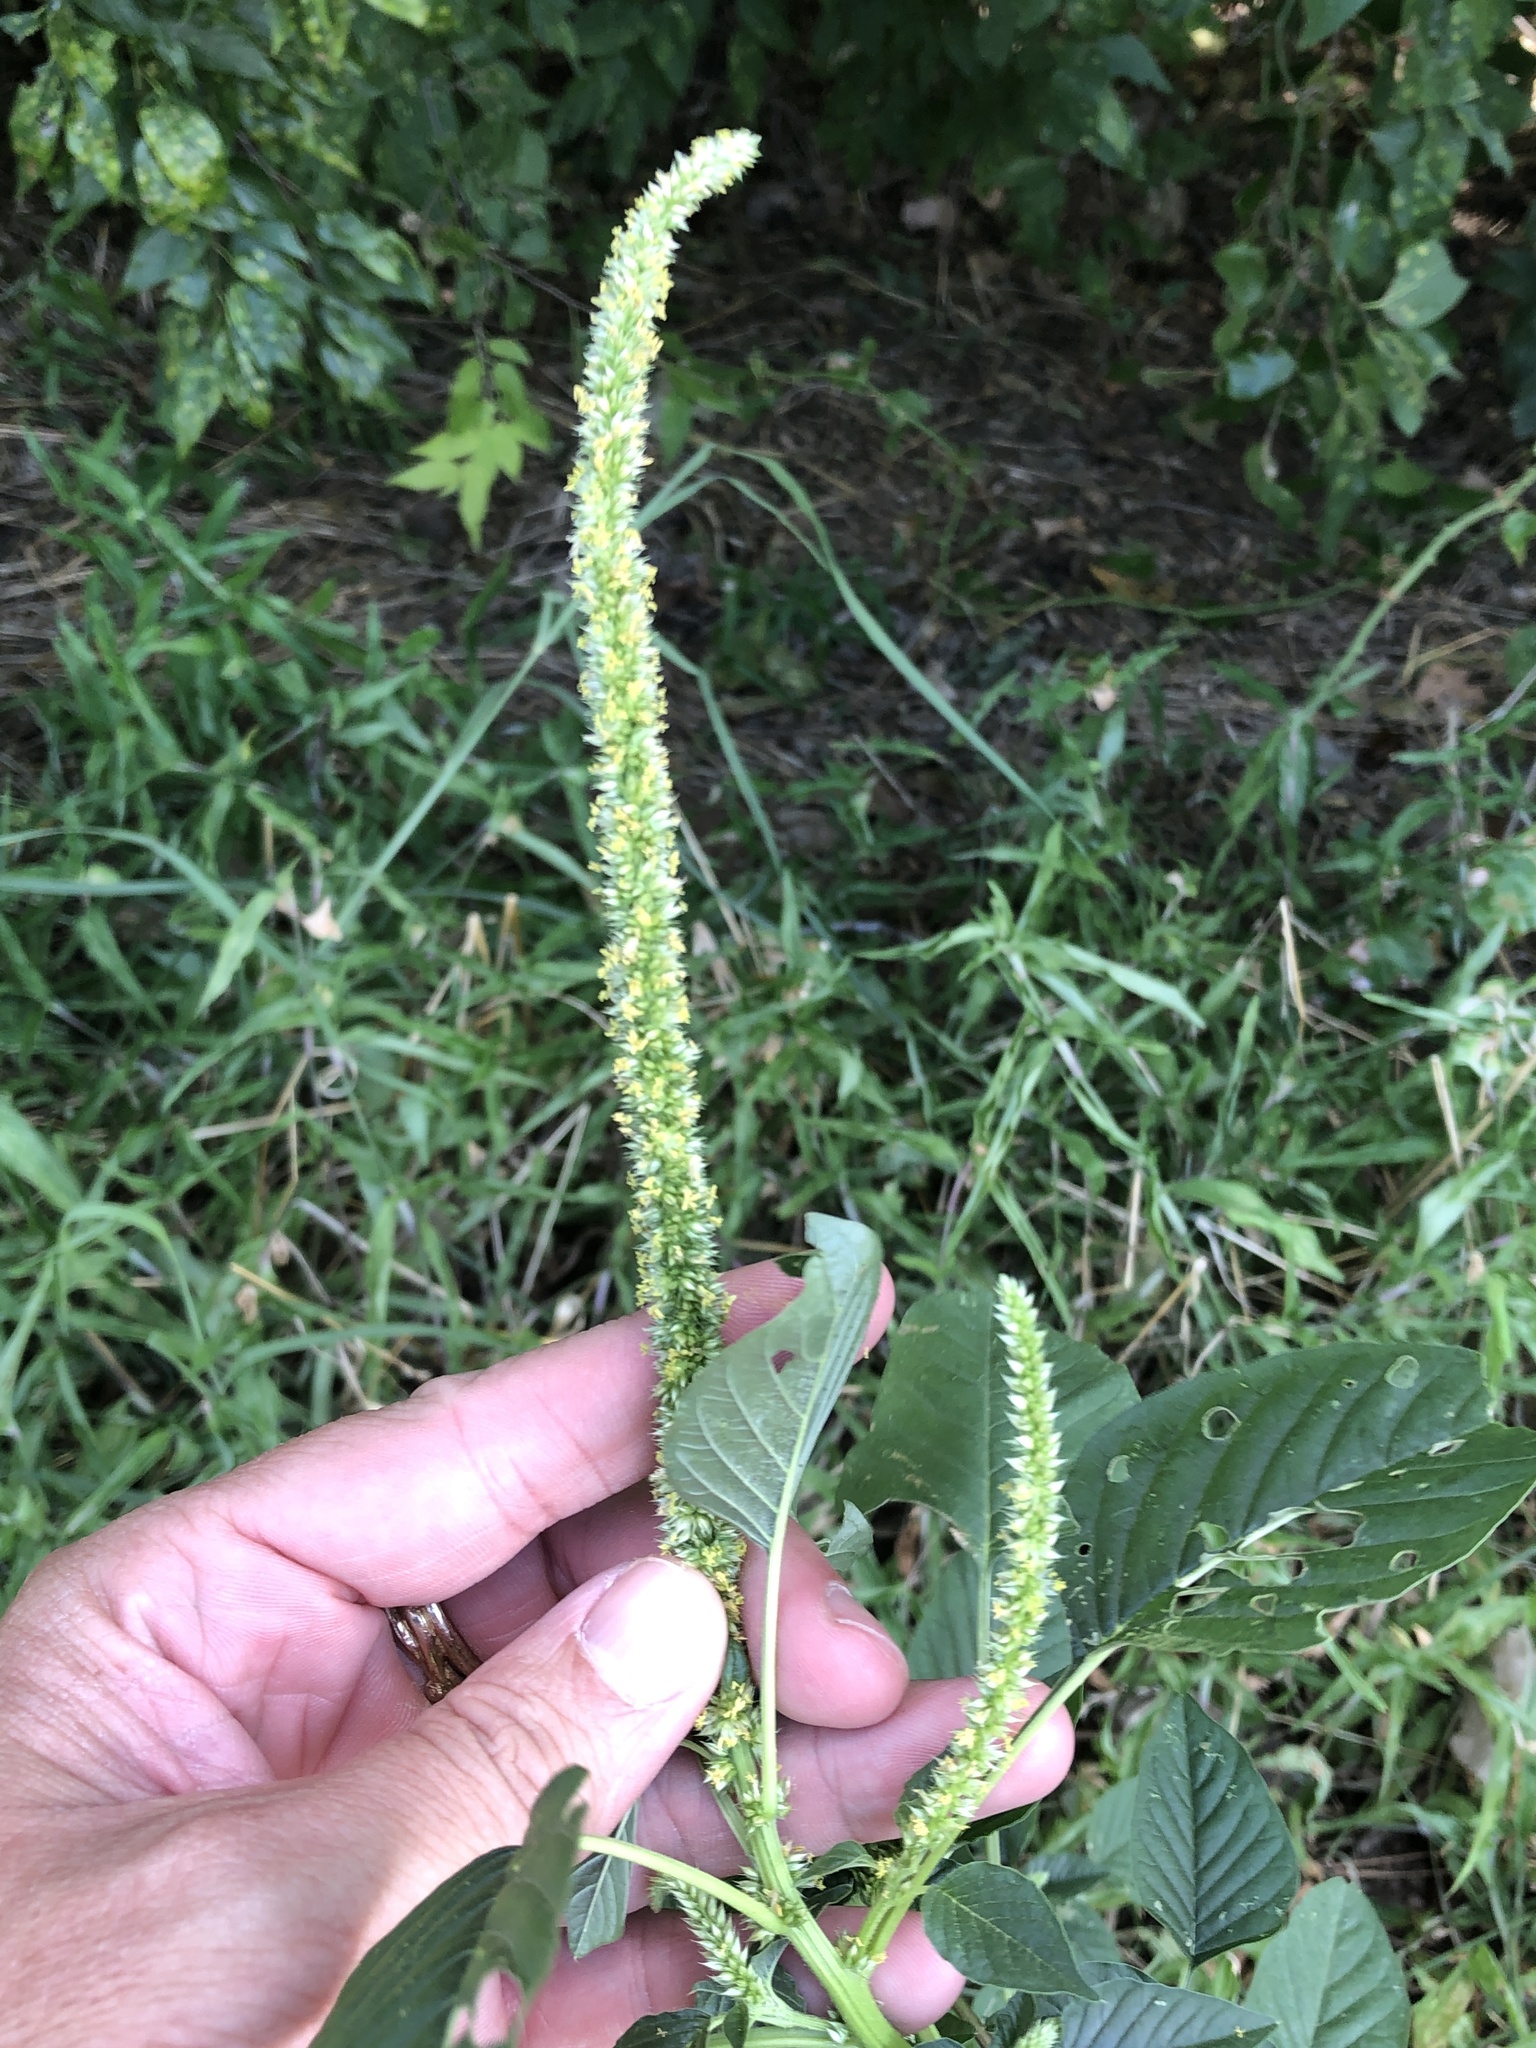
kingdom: Plantae
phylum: Tracheophyta
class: Magnoliopsida
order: Caryophyllales
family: Amaranthaceae
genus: Amaranthus
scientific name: Amaranthus palmeri
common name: Dioecious amaranth
